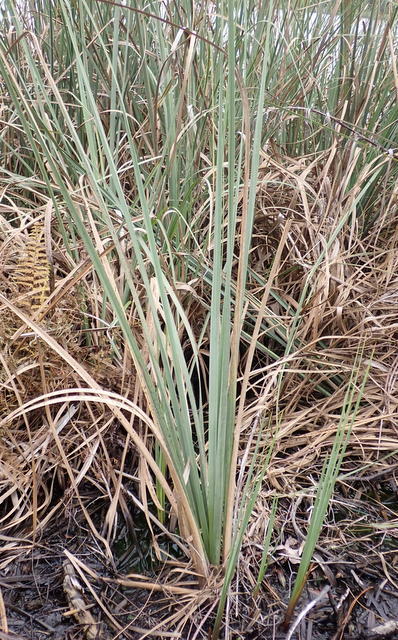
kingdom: Plantae
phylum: Tracheophyta
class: Liliopsida
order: Poales
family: Cyperaceae
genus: Cladium
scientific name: Cladium mariscus
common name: Great fen-sedge
